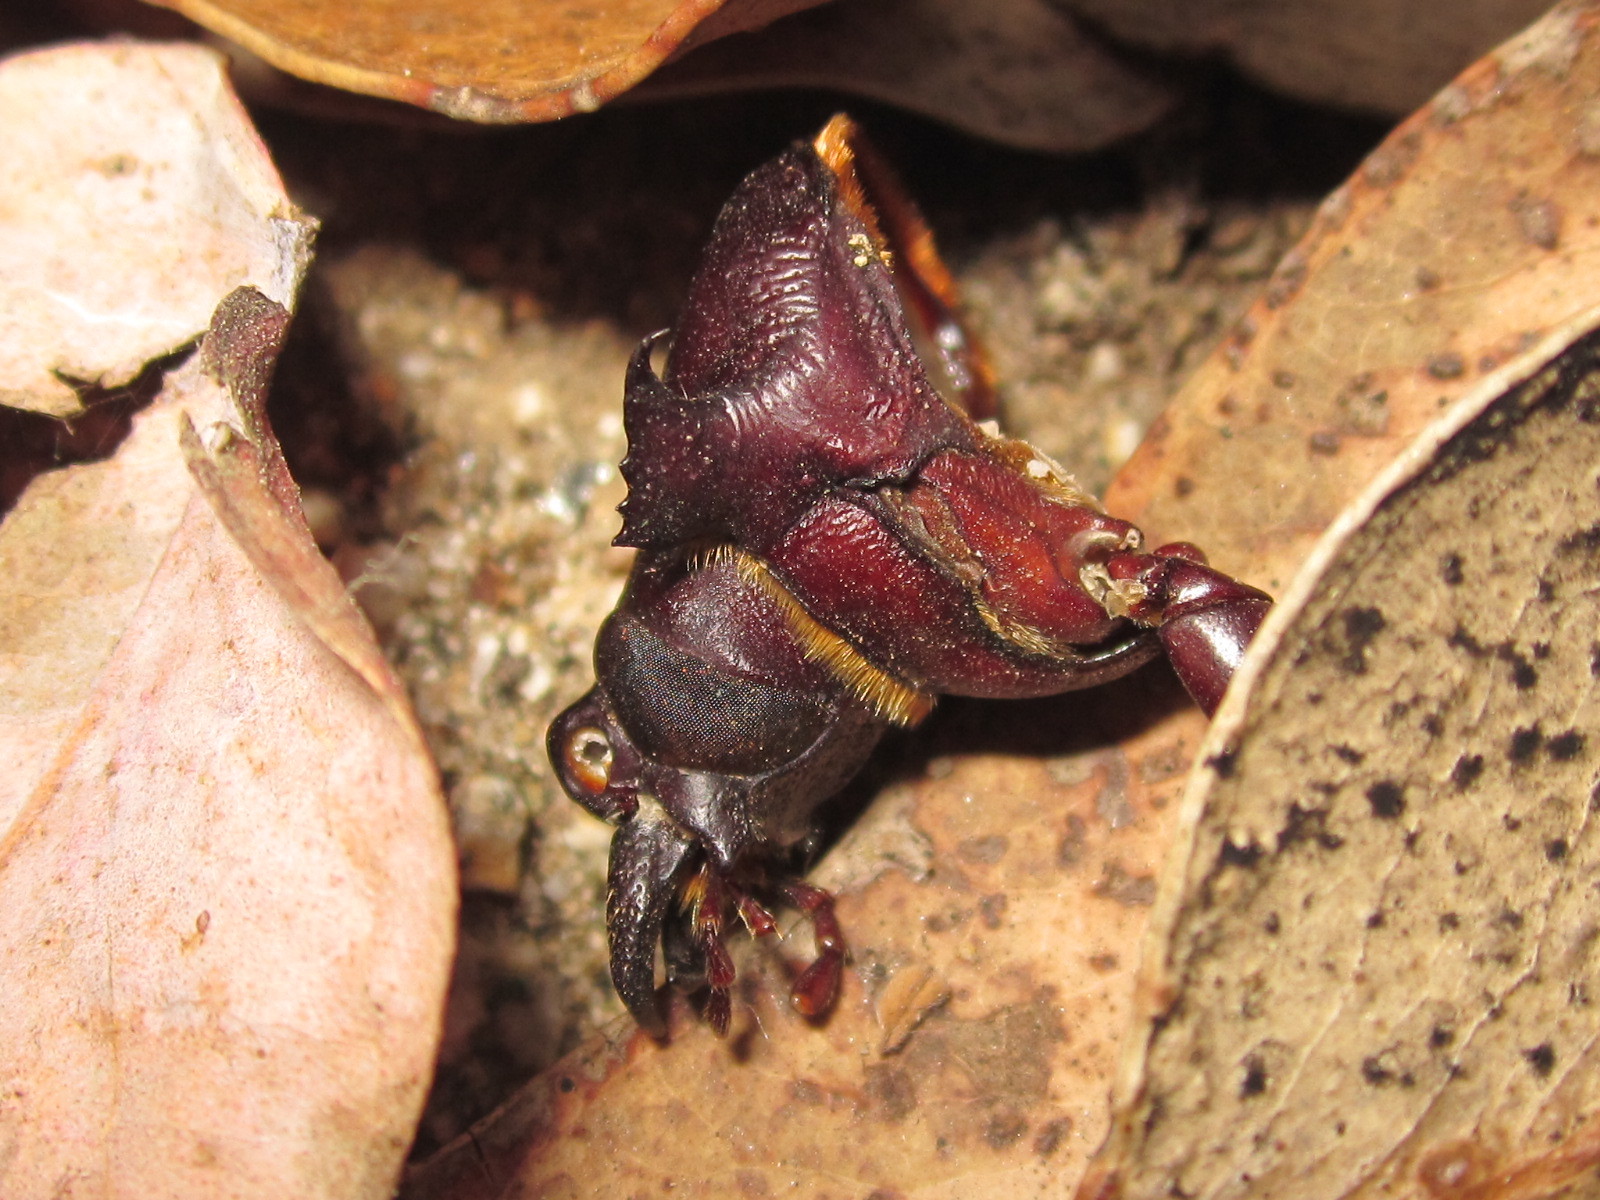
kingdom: Animalia
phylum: Arthropoda
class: Insecta
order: Coleoptera
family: Cerambycidae
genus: Acanthinodera
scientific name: Acanthinodera cumingii
